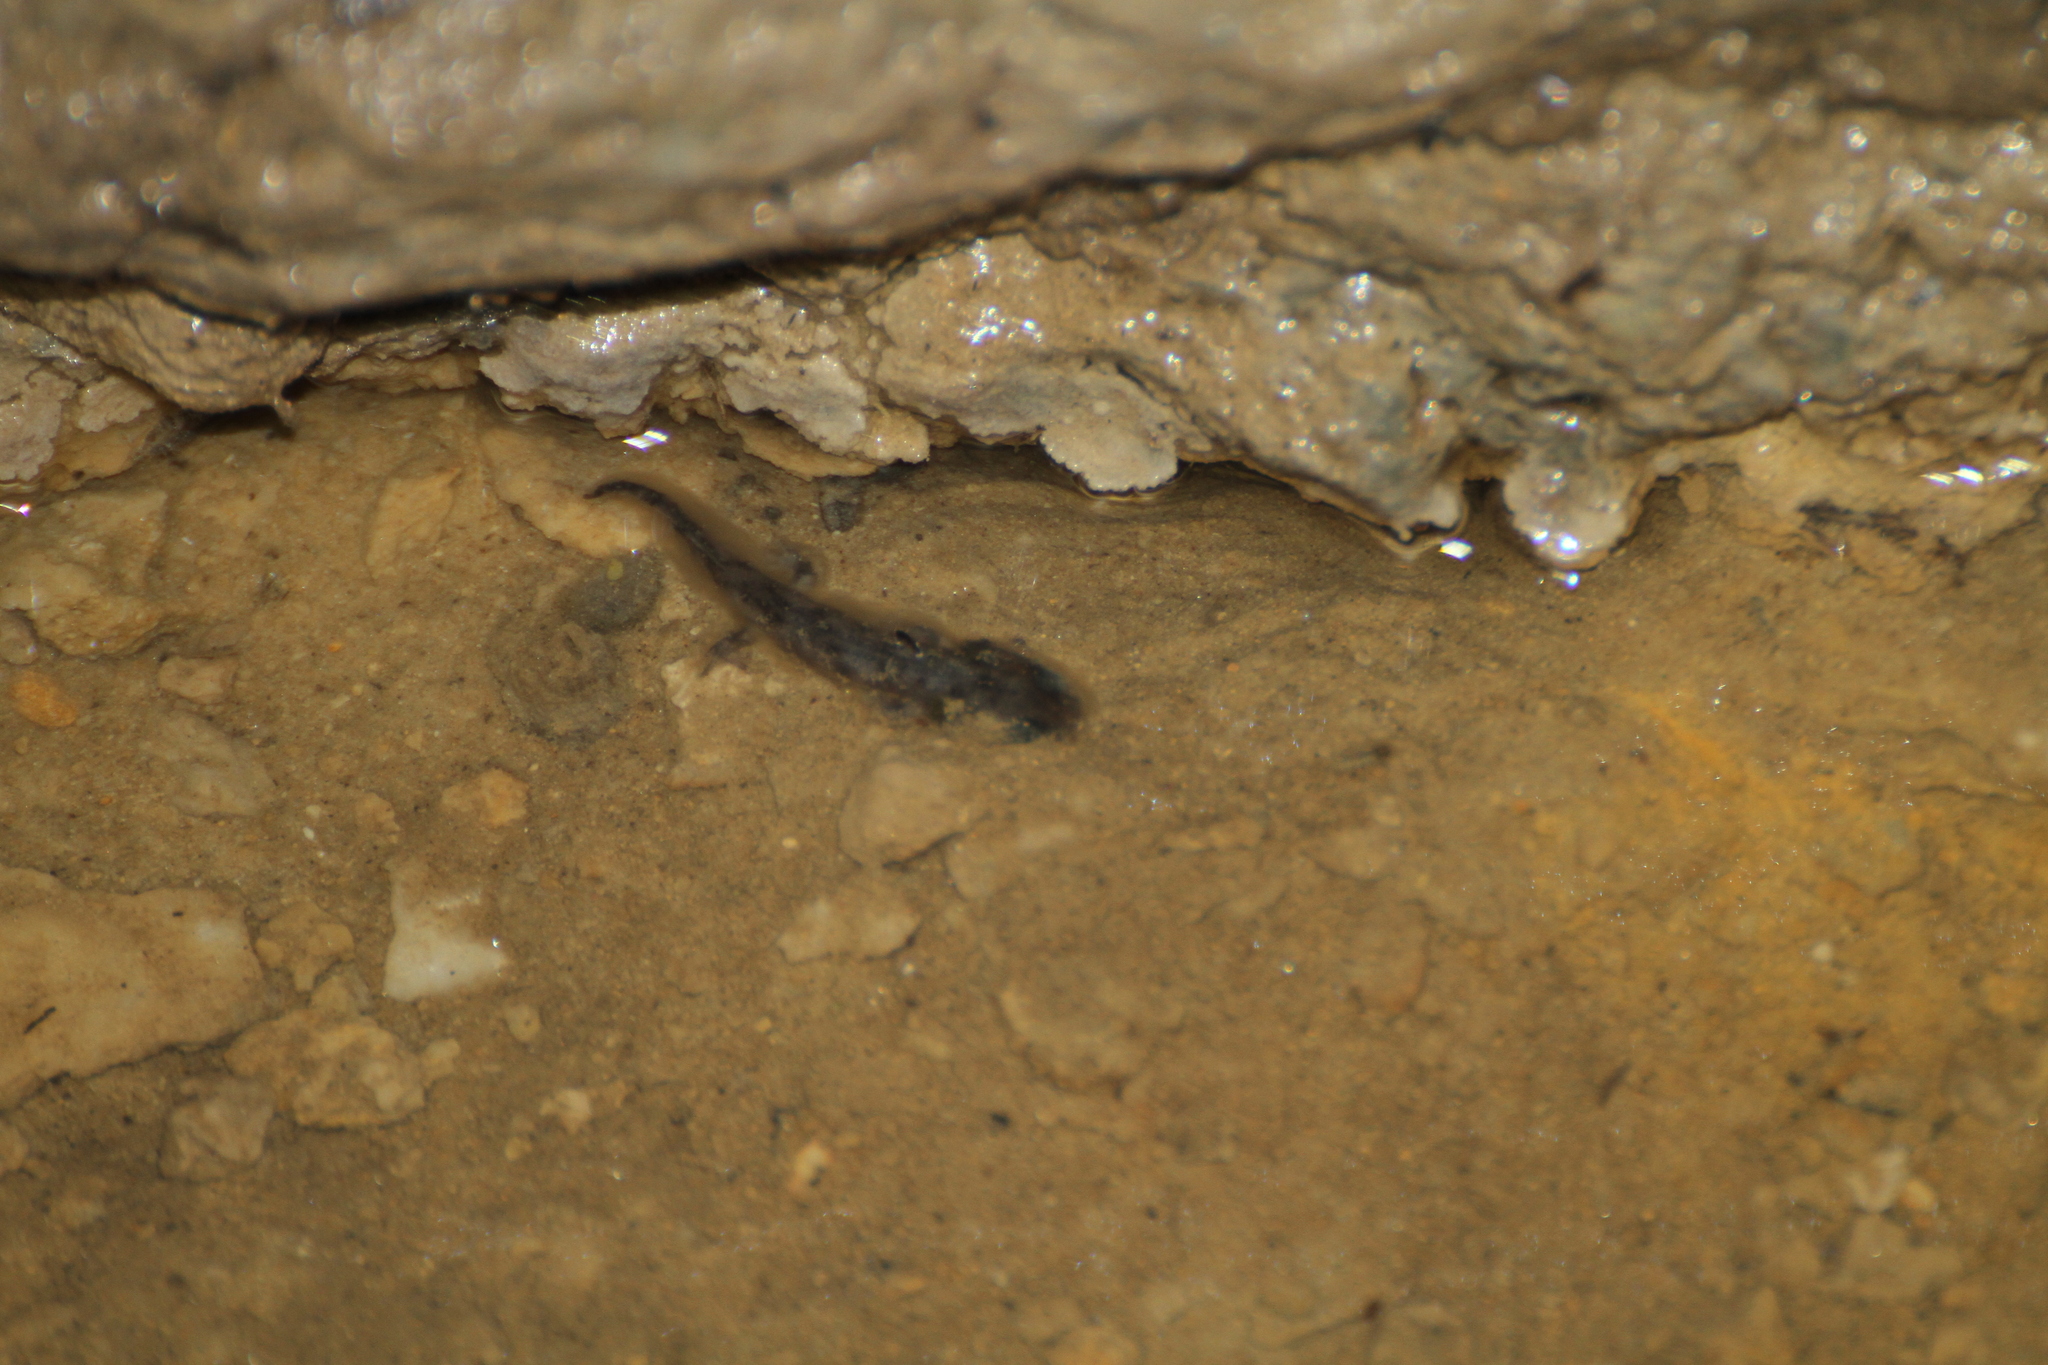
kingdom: Animalia
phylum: Chordata
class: Amphibia
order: Caudata
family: Salamandridae
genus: Salamandra
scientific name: Salamandra salamandra
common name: Fire salamander
